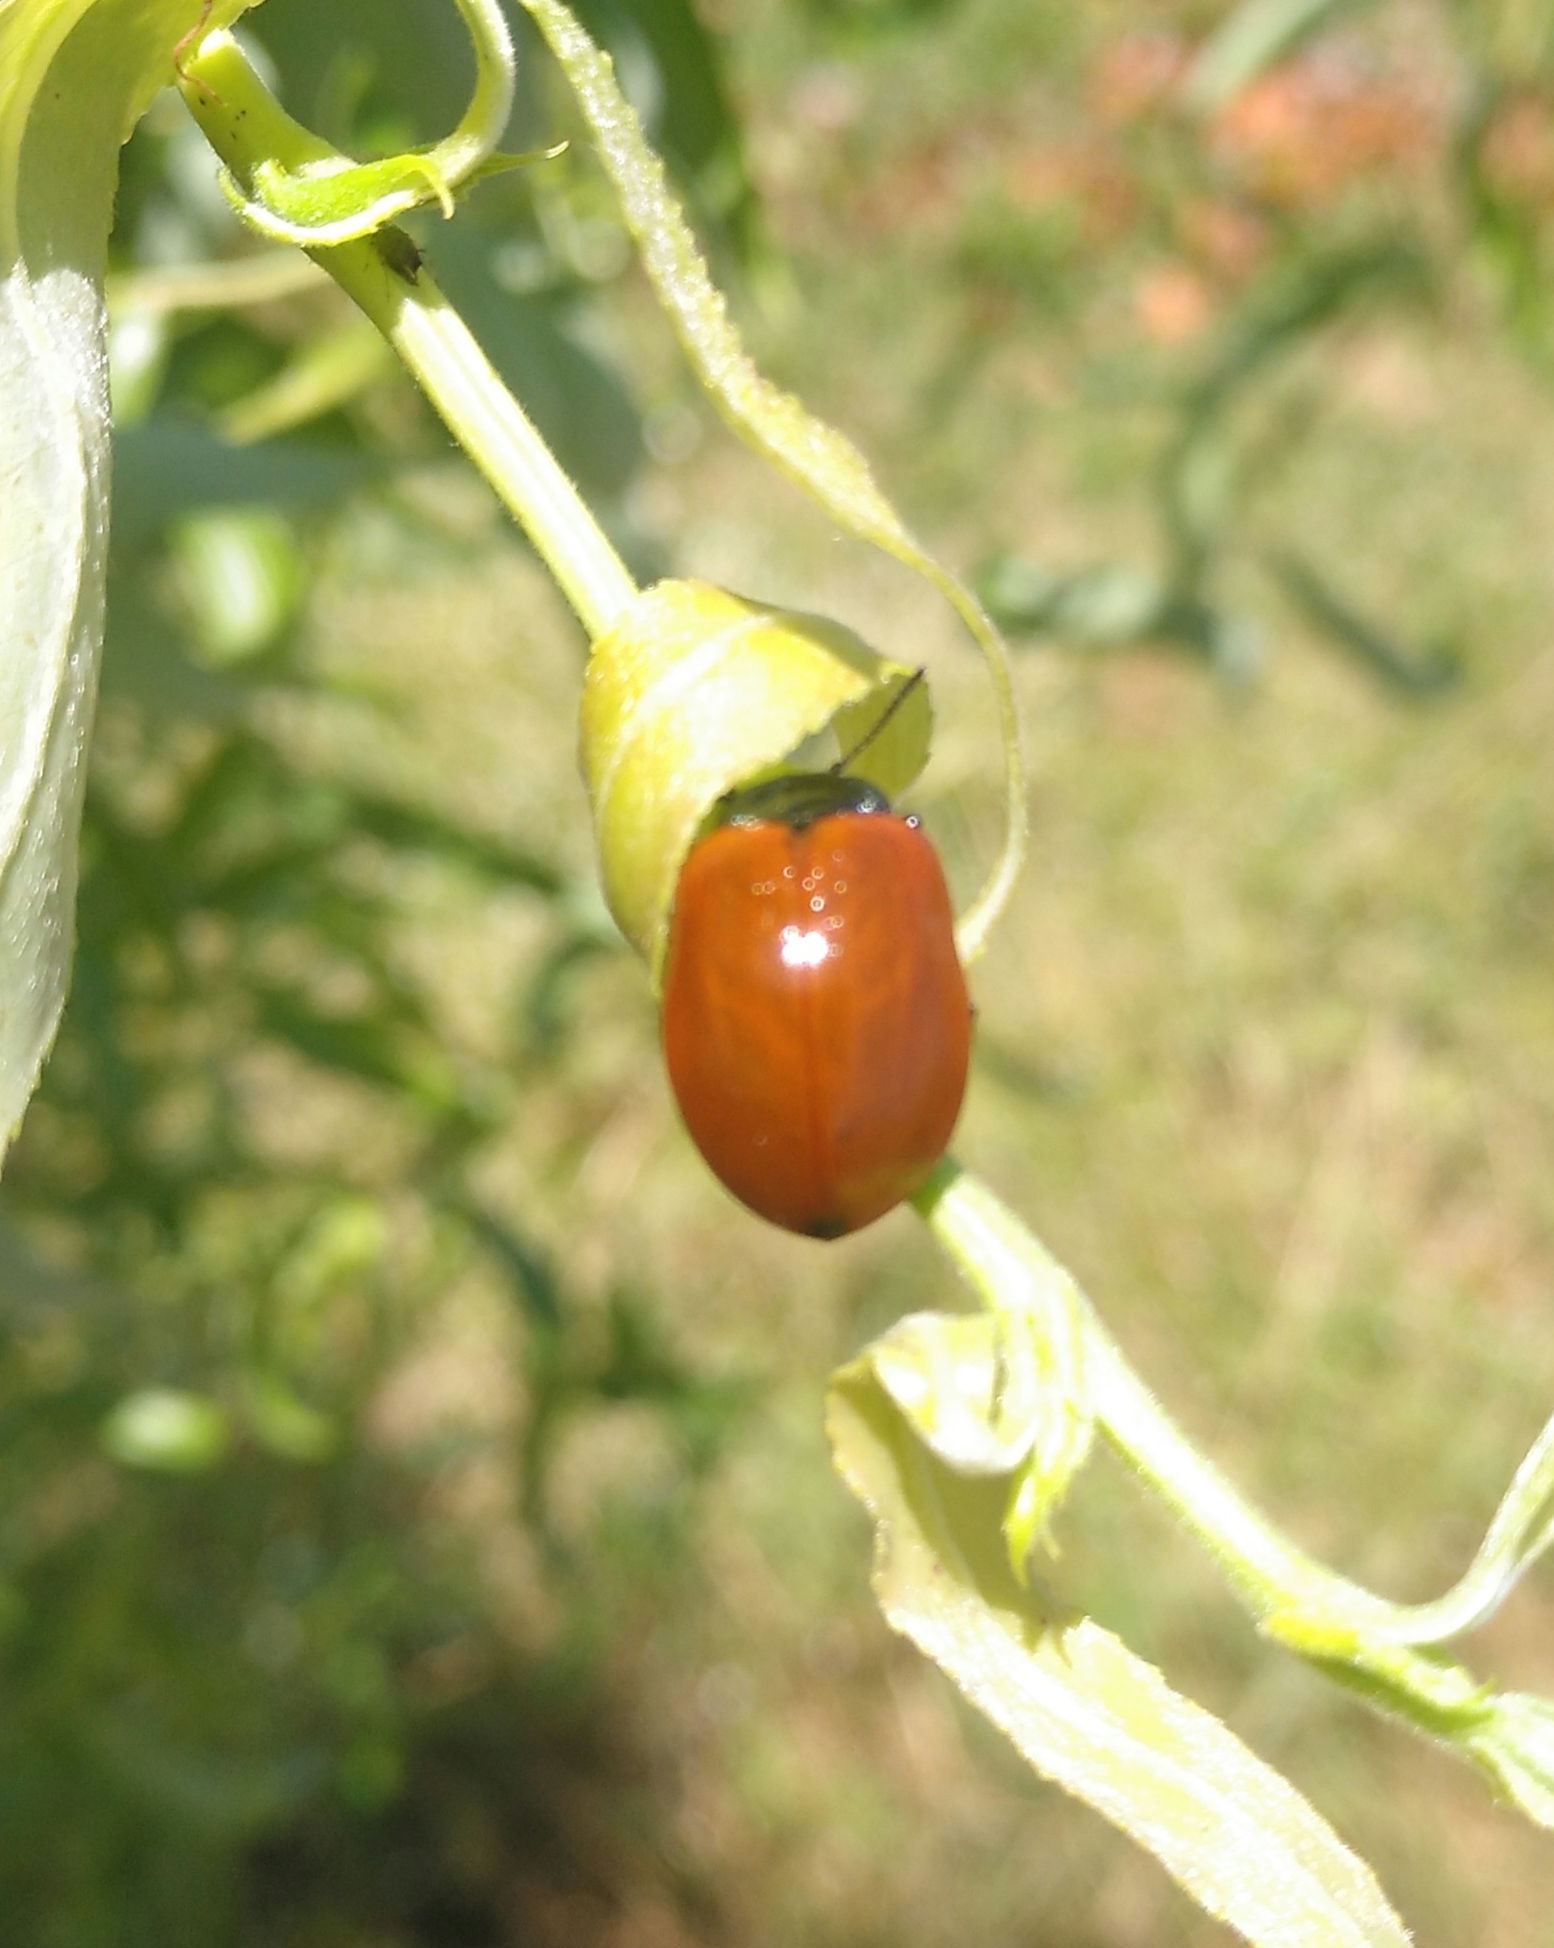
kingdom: Animalia
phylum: Arthropoda
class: Insecta
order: Coleoptera
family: Chrysomelidae
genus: Chrysomela
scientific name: Chrysomela populi
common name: Red poplar leaf beetle
